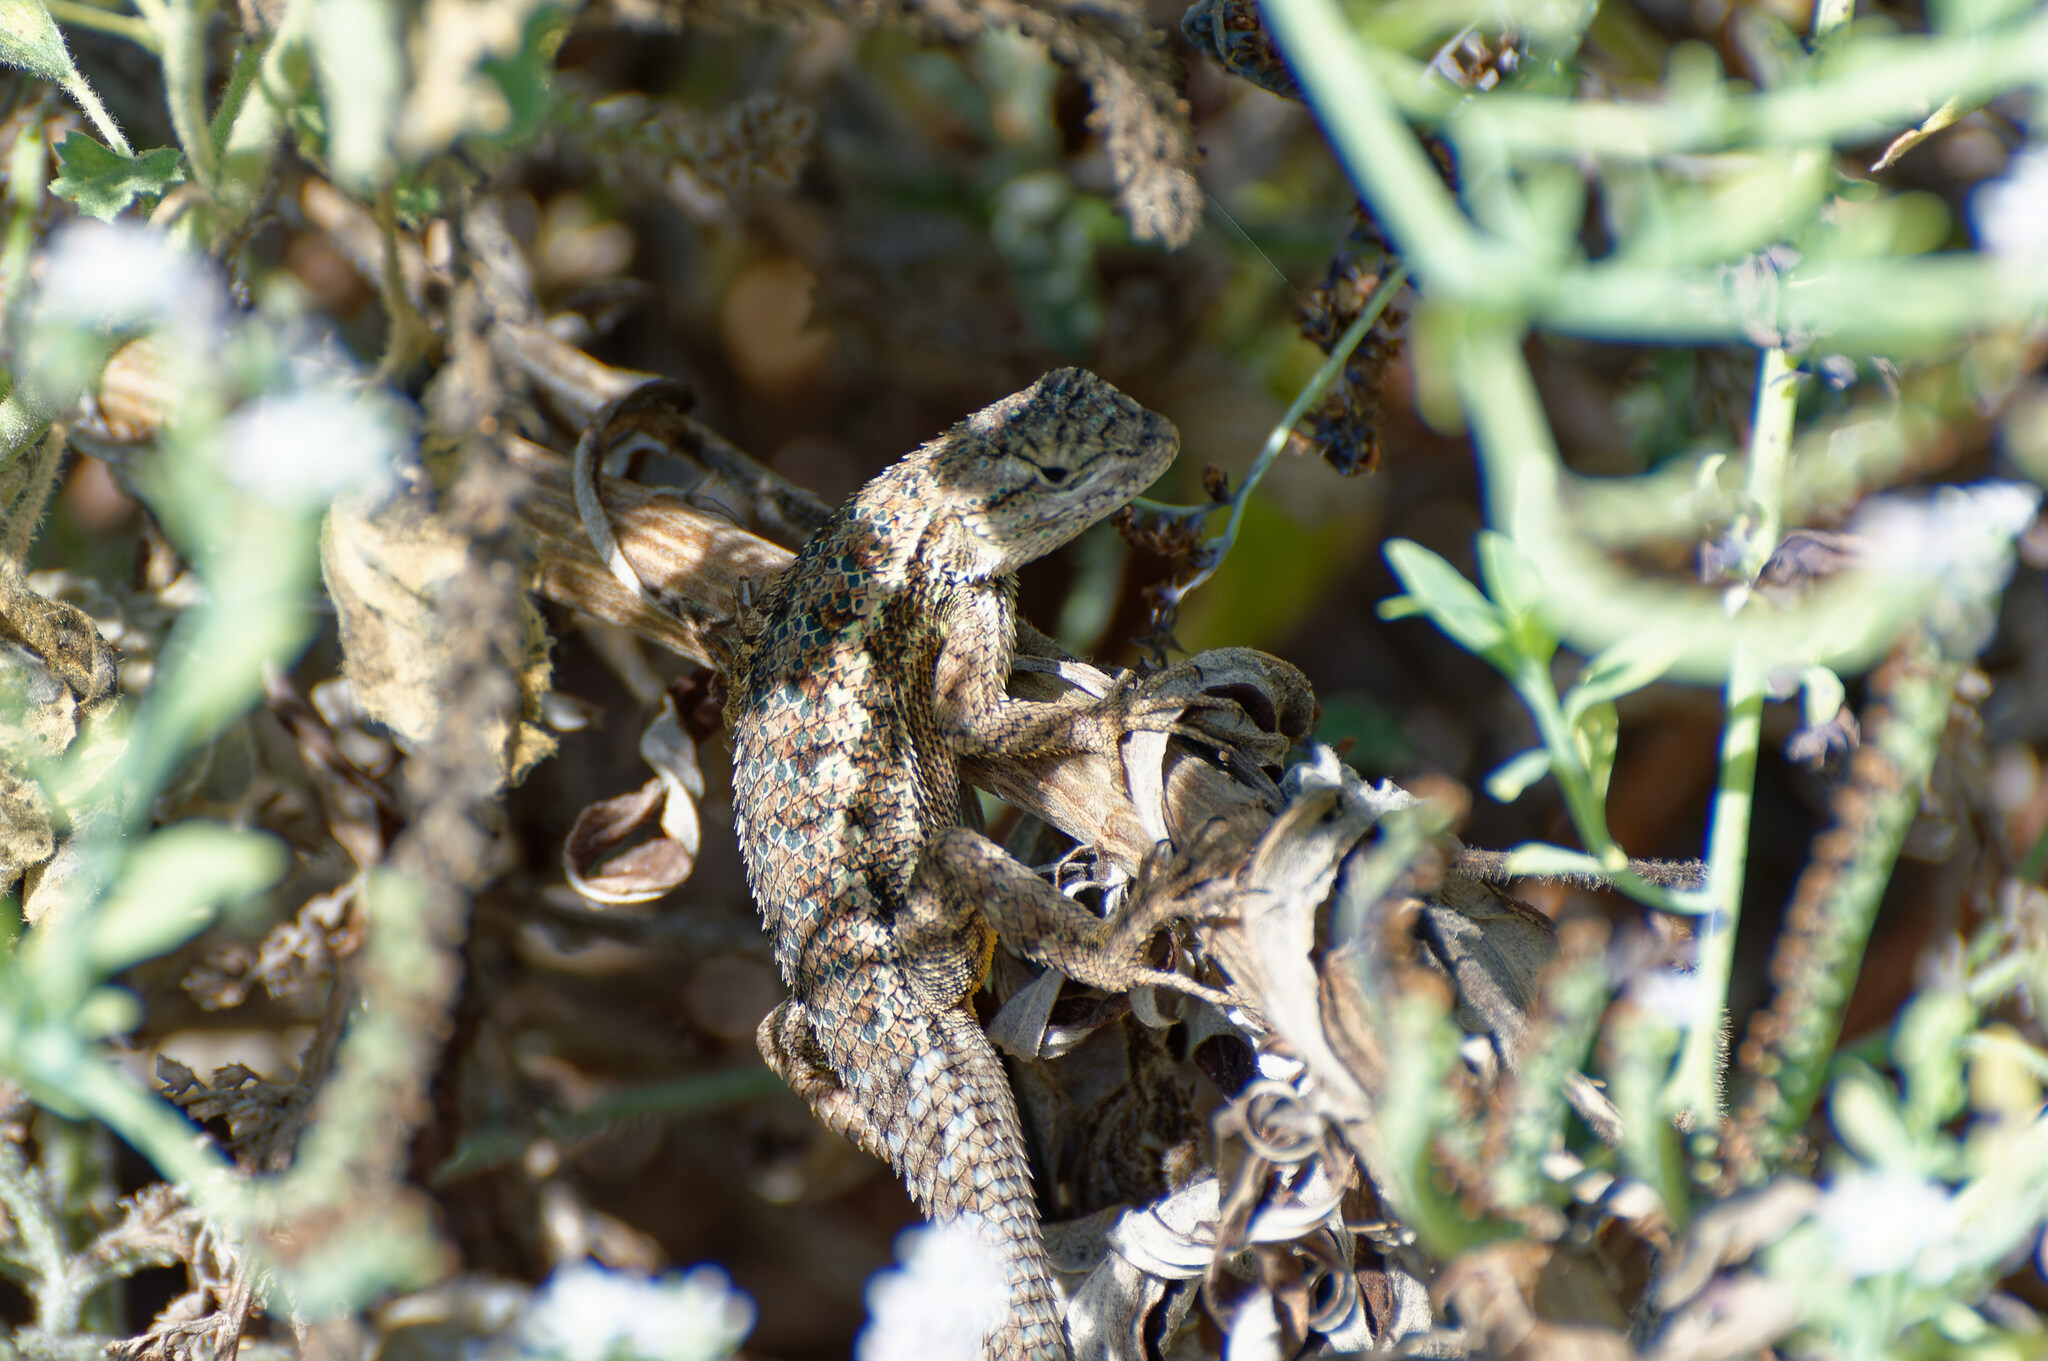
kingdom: Animalia
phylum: Chordata
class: Squamata
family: Phrynosomatidae
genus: Sceloporus
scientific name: Sceloporus occidentalis
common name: Western fence lizard
